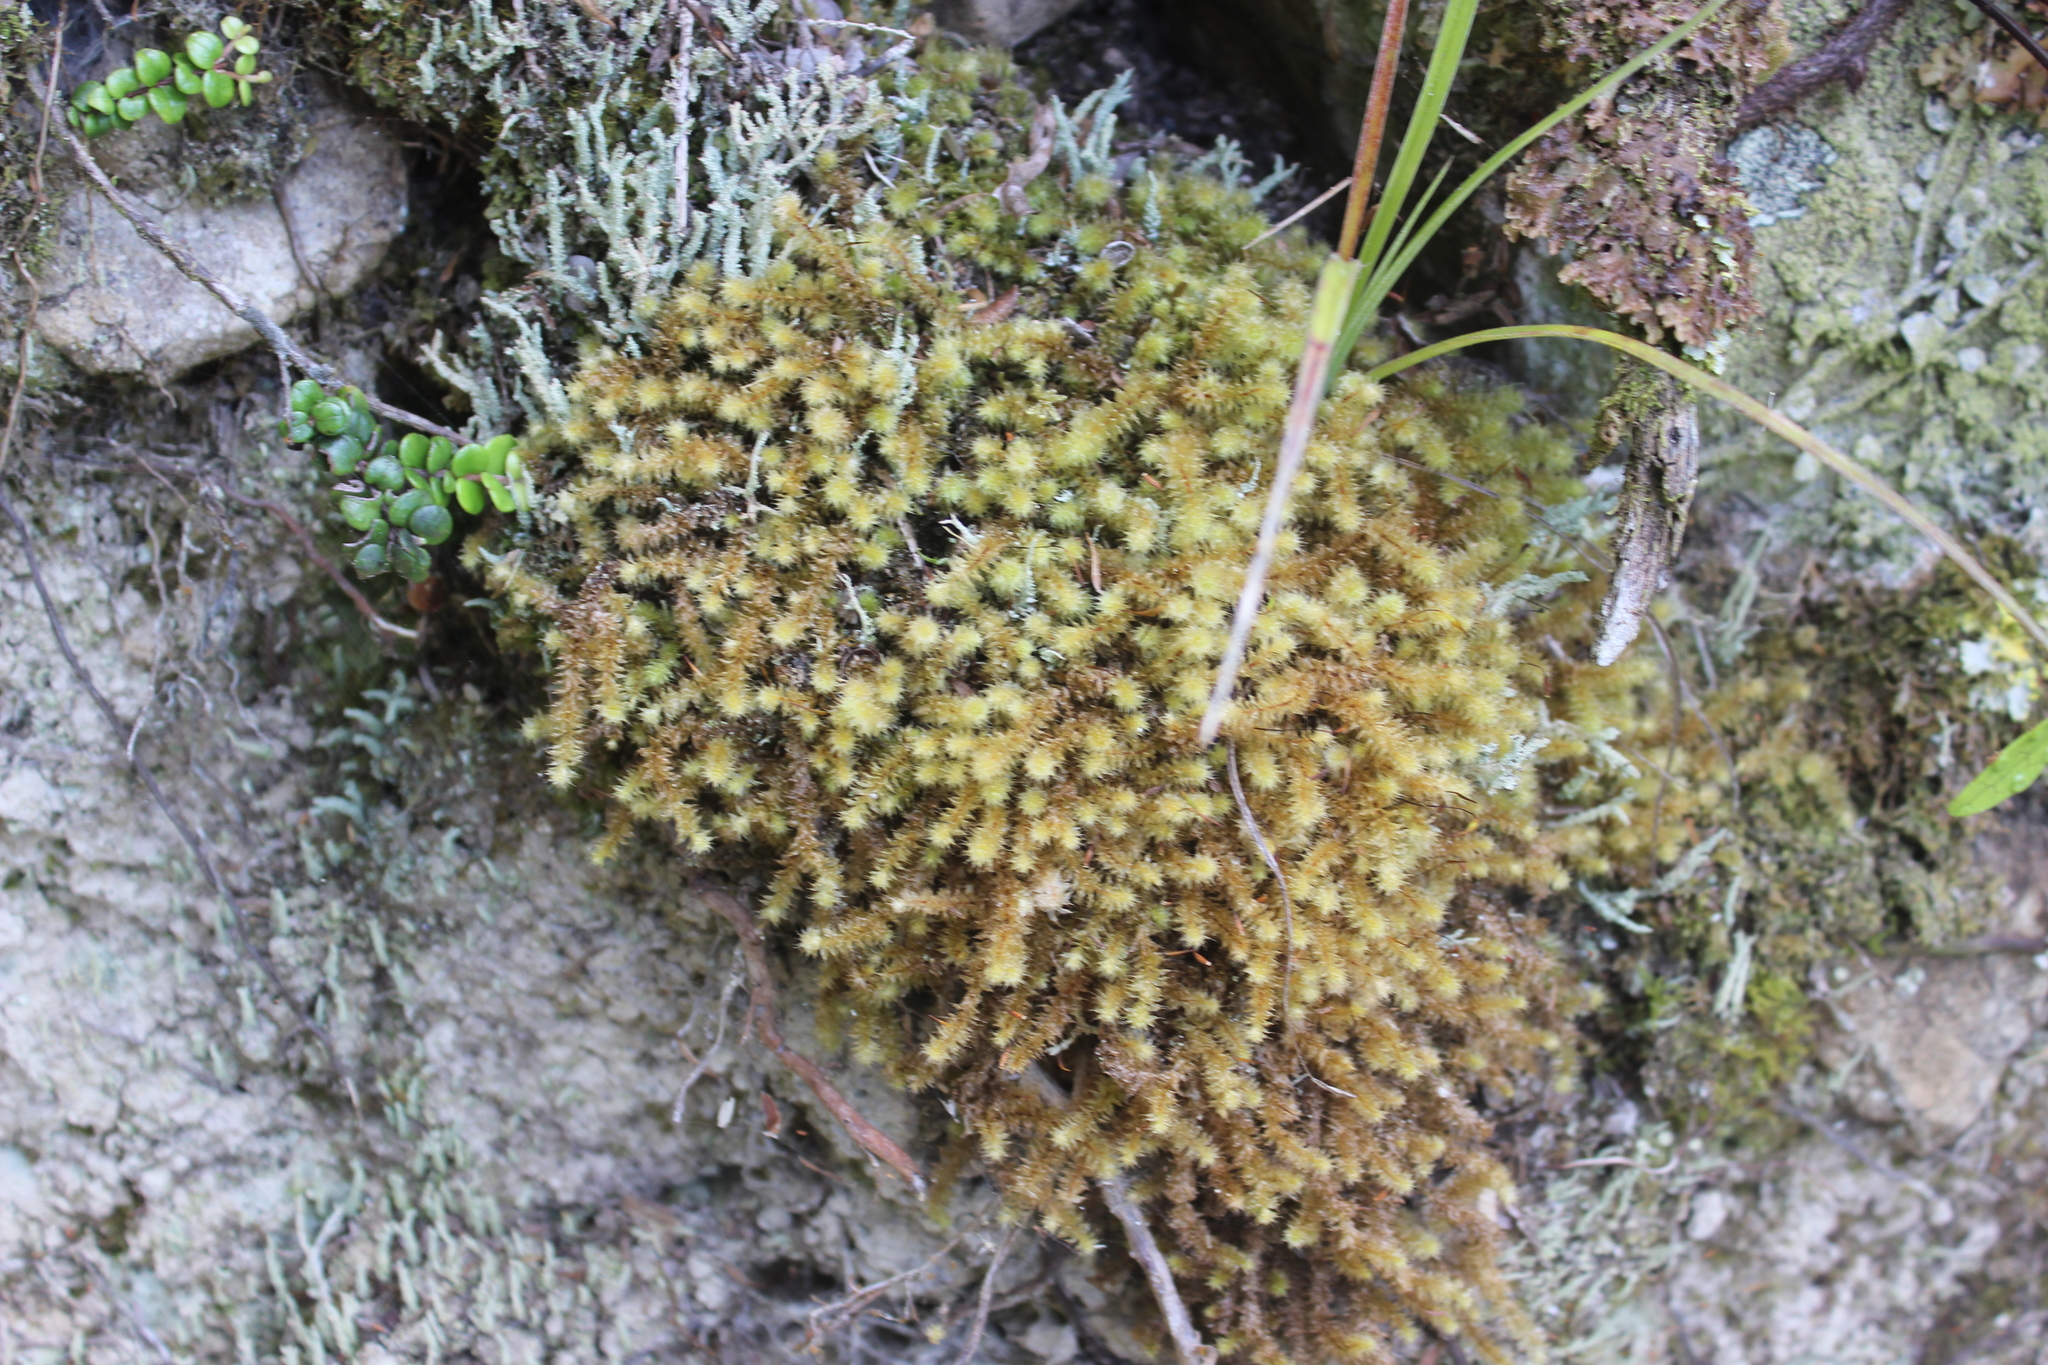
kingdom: Plantae
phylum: Bryophyta
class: Bryopsida
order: Ptychomniales
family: Ptychomniaceae
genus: Ptychomnion
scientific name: Ptychomnion aciculare
